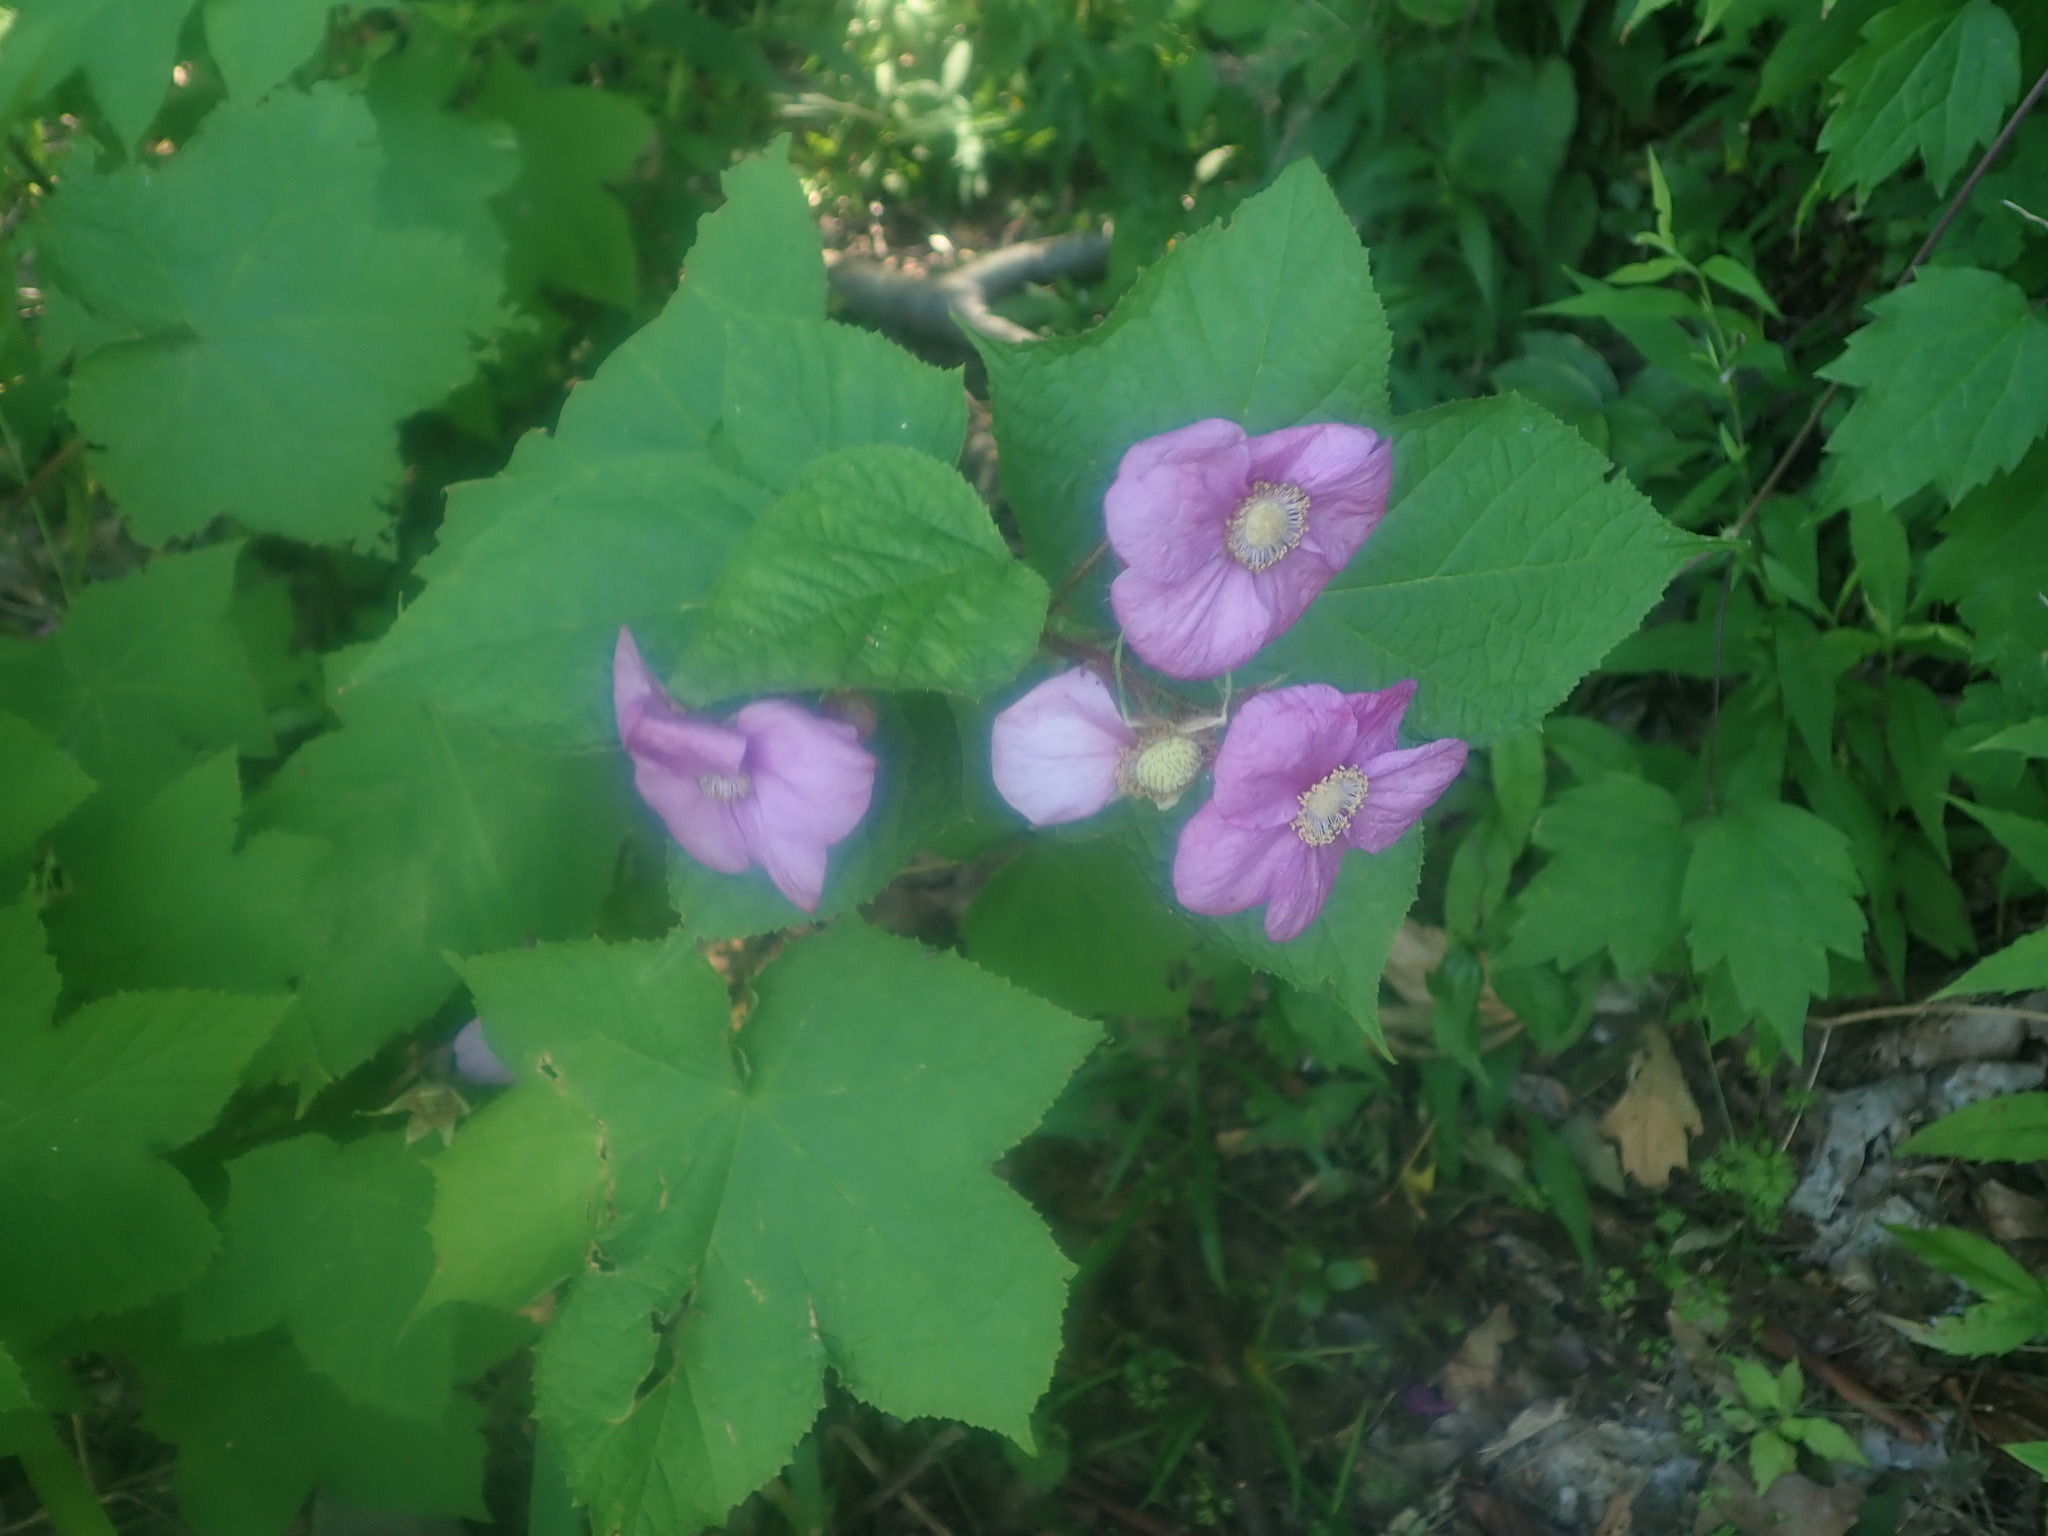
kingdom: Plantae
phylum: Tracheophyta
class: Magnoliopsida
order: Rosales
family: Rosaceae
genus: Rubus
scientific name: Rubus odoratus
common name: Purple-flowered raspberry
